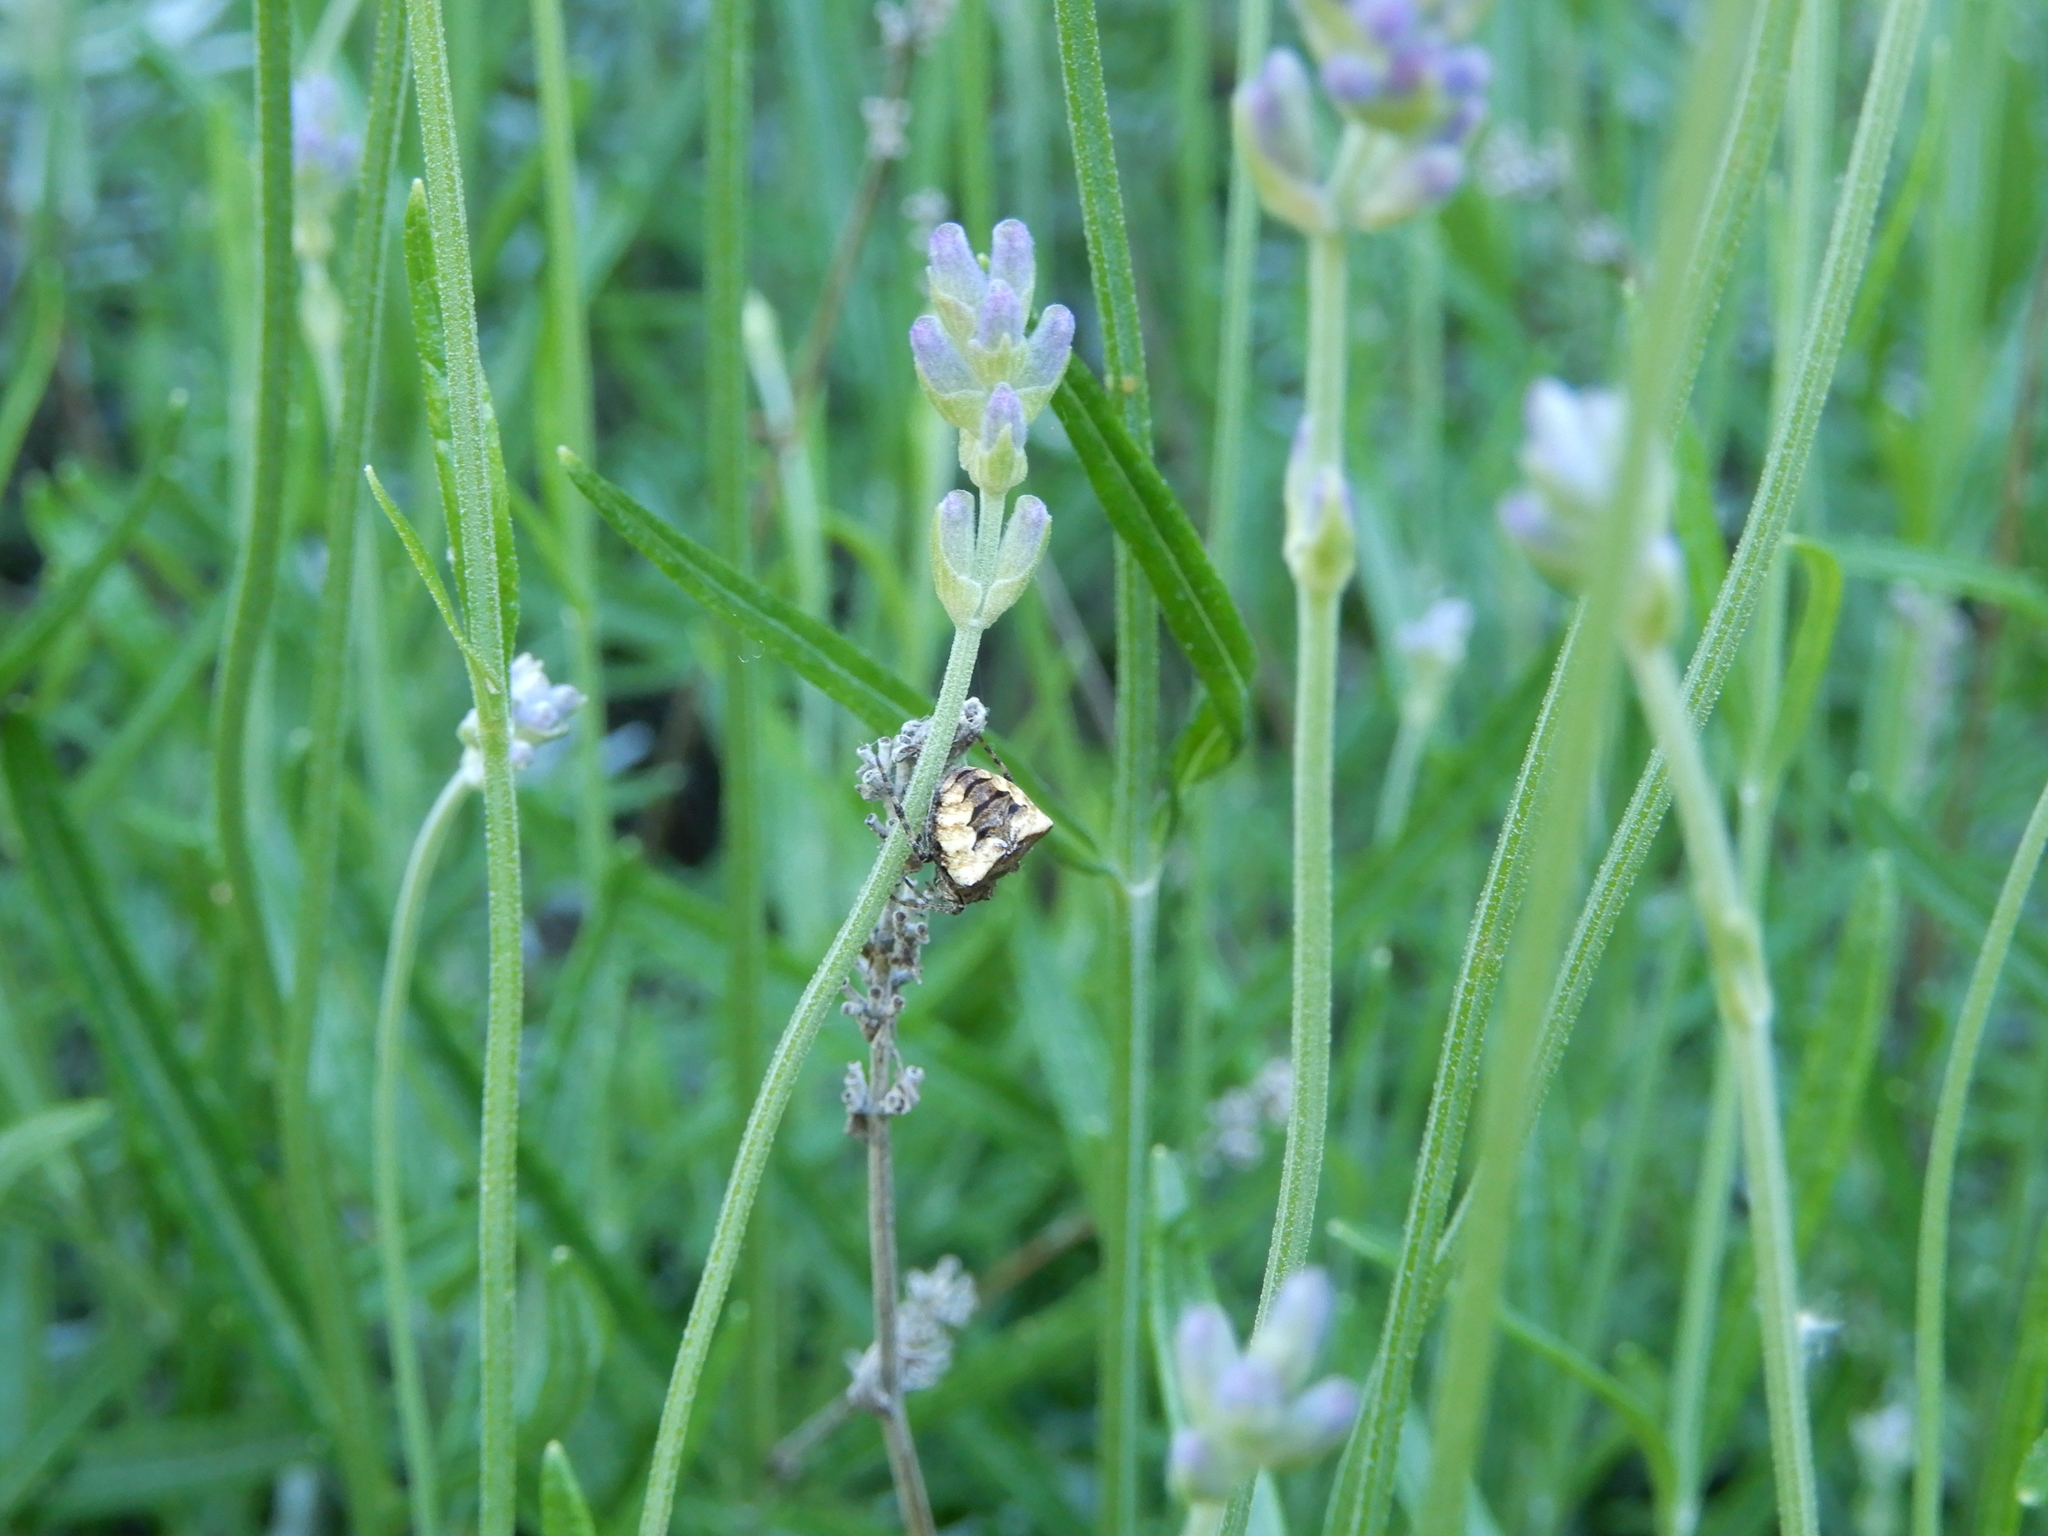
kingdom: Animalia
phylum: Arthropoda
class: Arachnida
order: Araneae
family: Araneidae
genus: Gibbaranea
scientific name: Gibbaranea bituberculata
